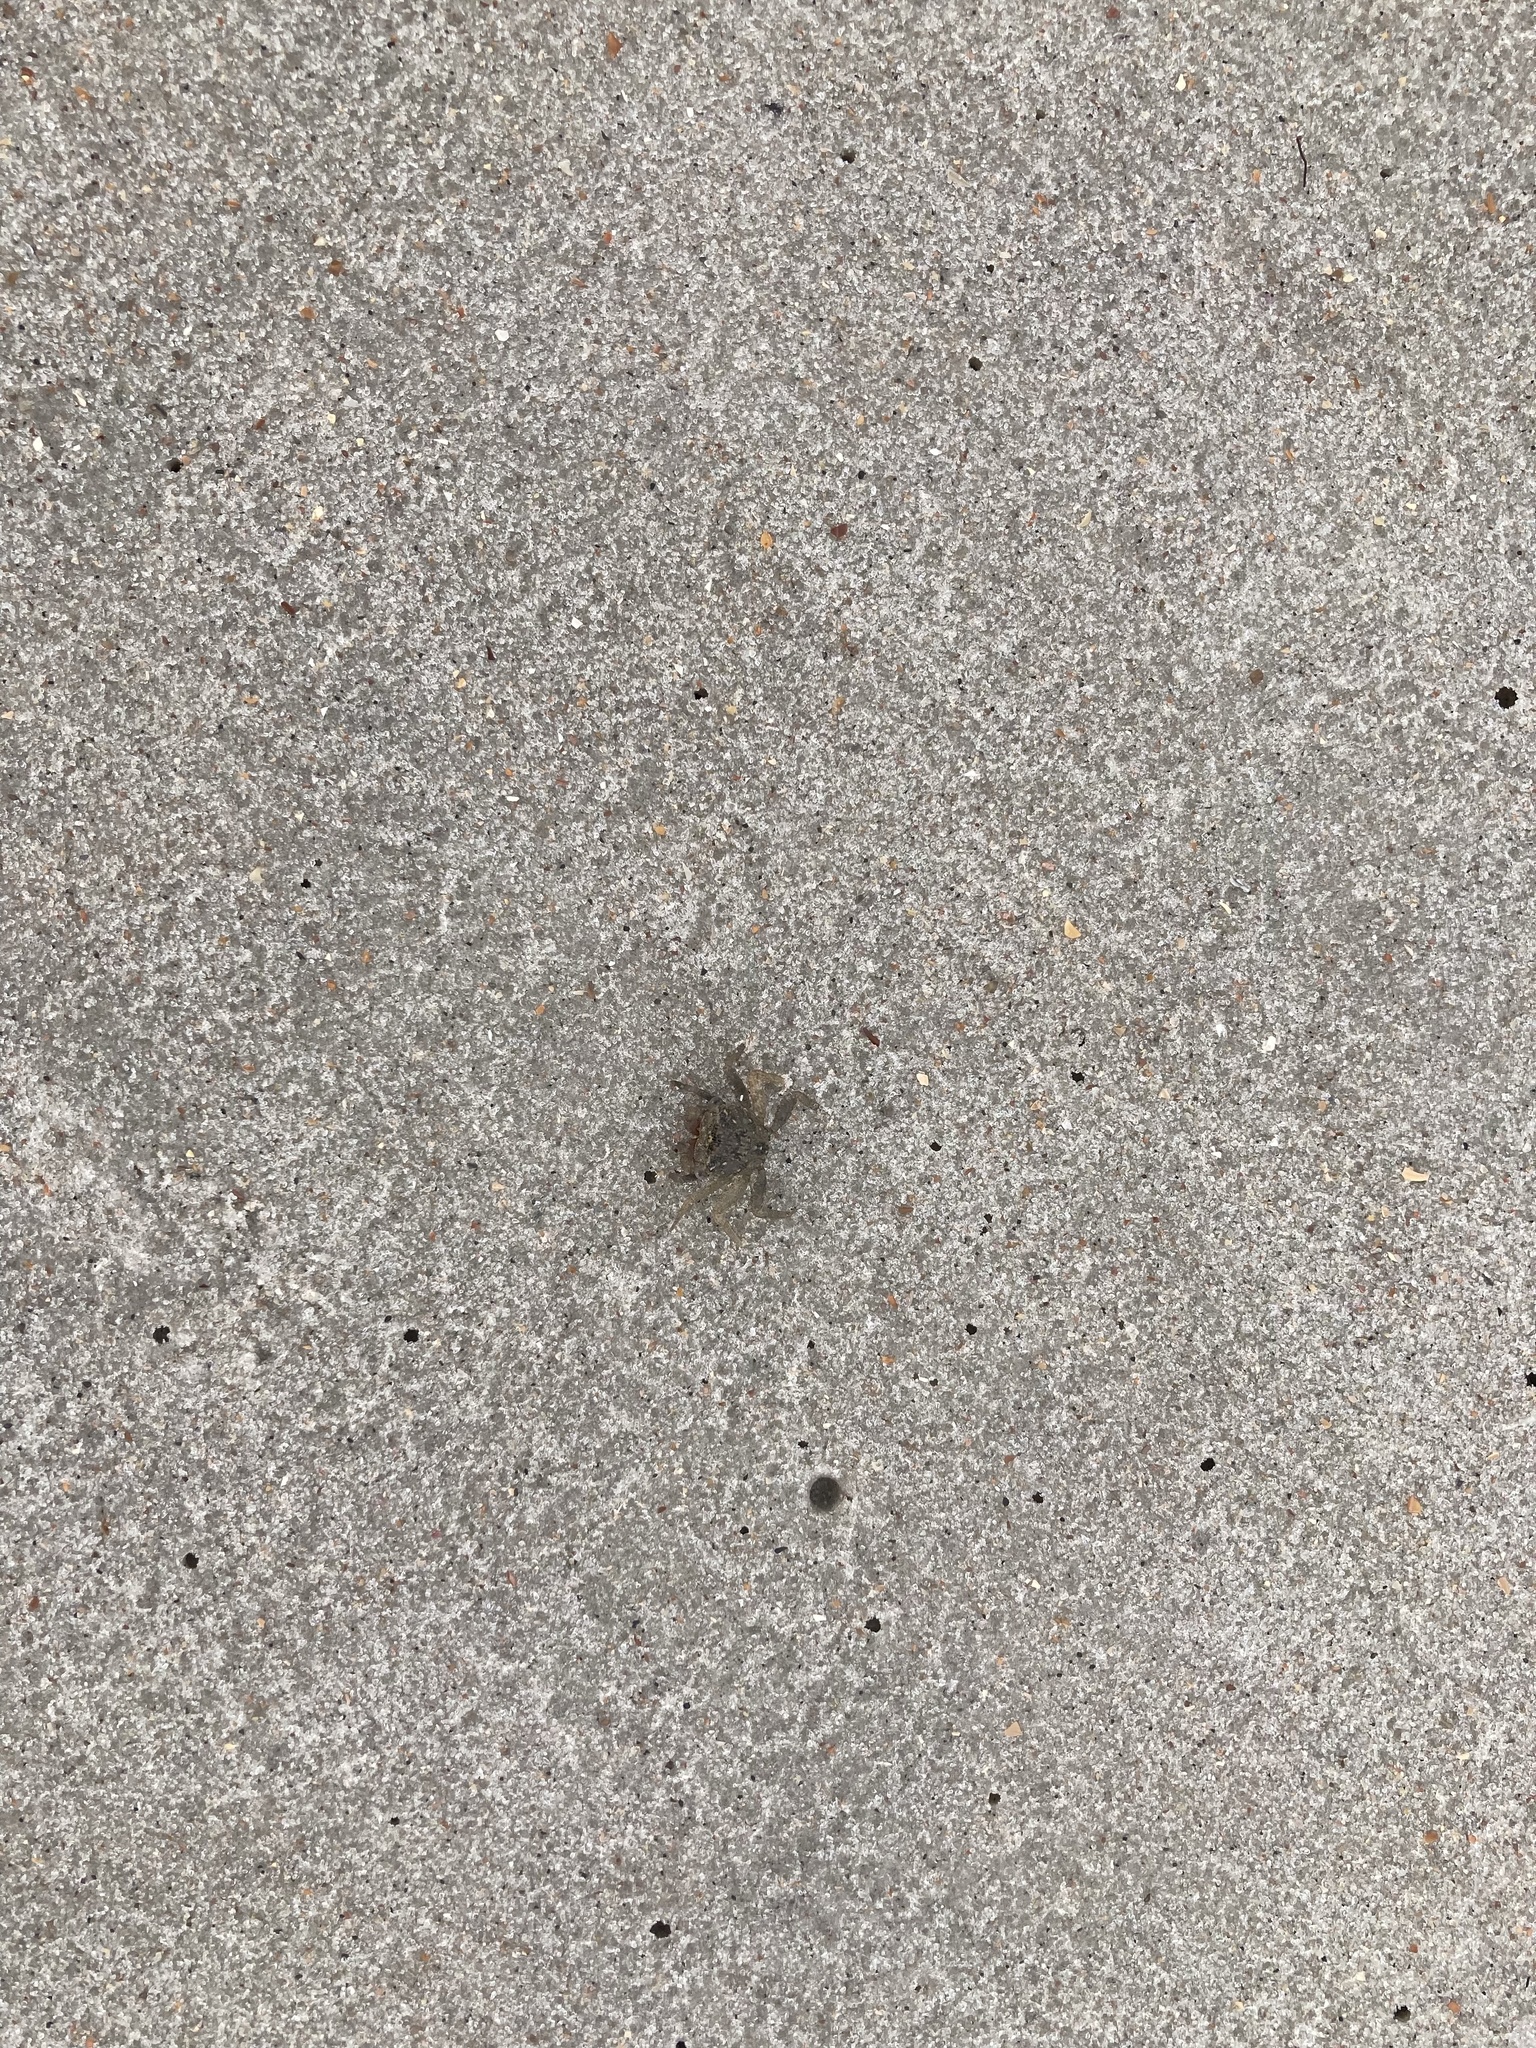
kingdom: Animalia
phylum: Arthropoda
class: Malacostraca
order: Decapoda
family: Sesarmidae
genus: Armases
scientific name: Armases cinereum
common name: Squareback marsh crab
